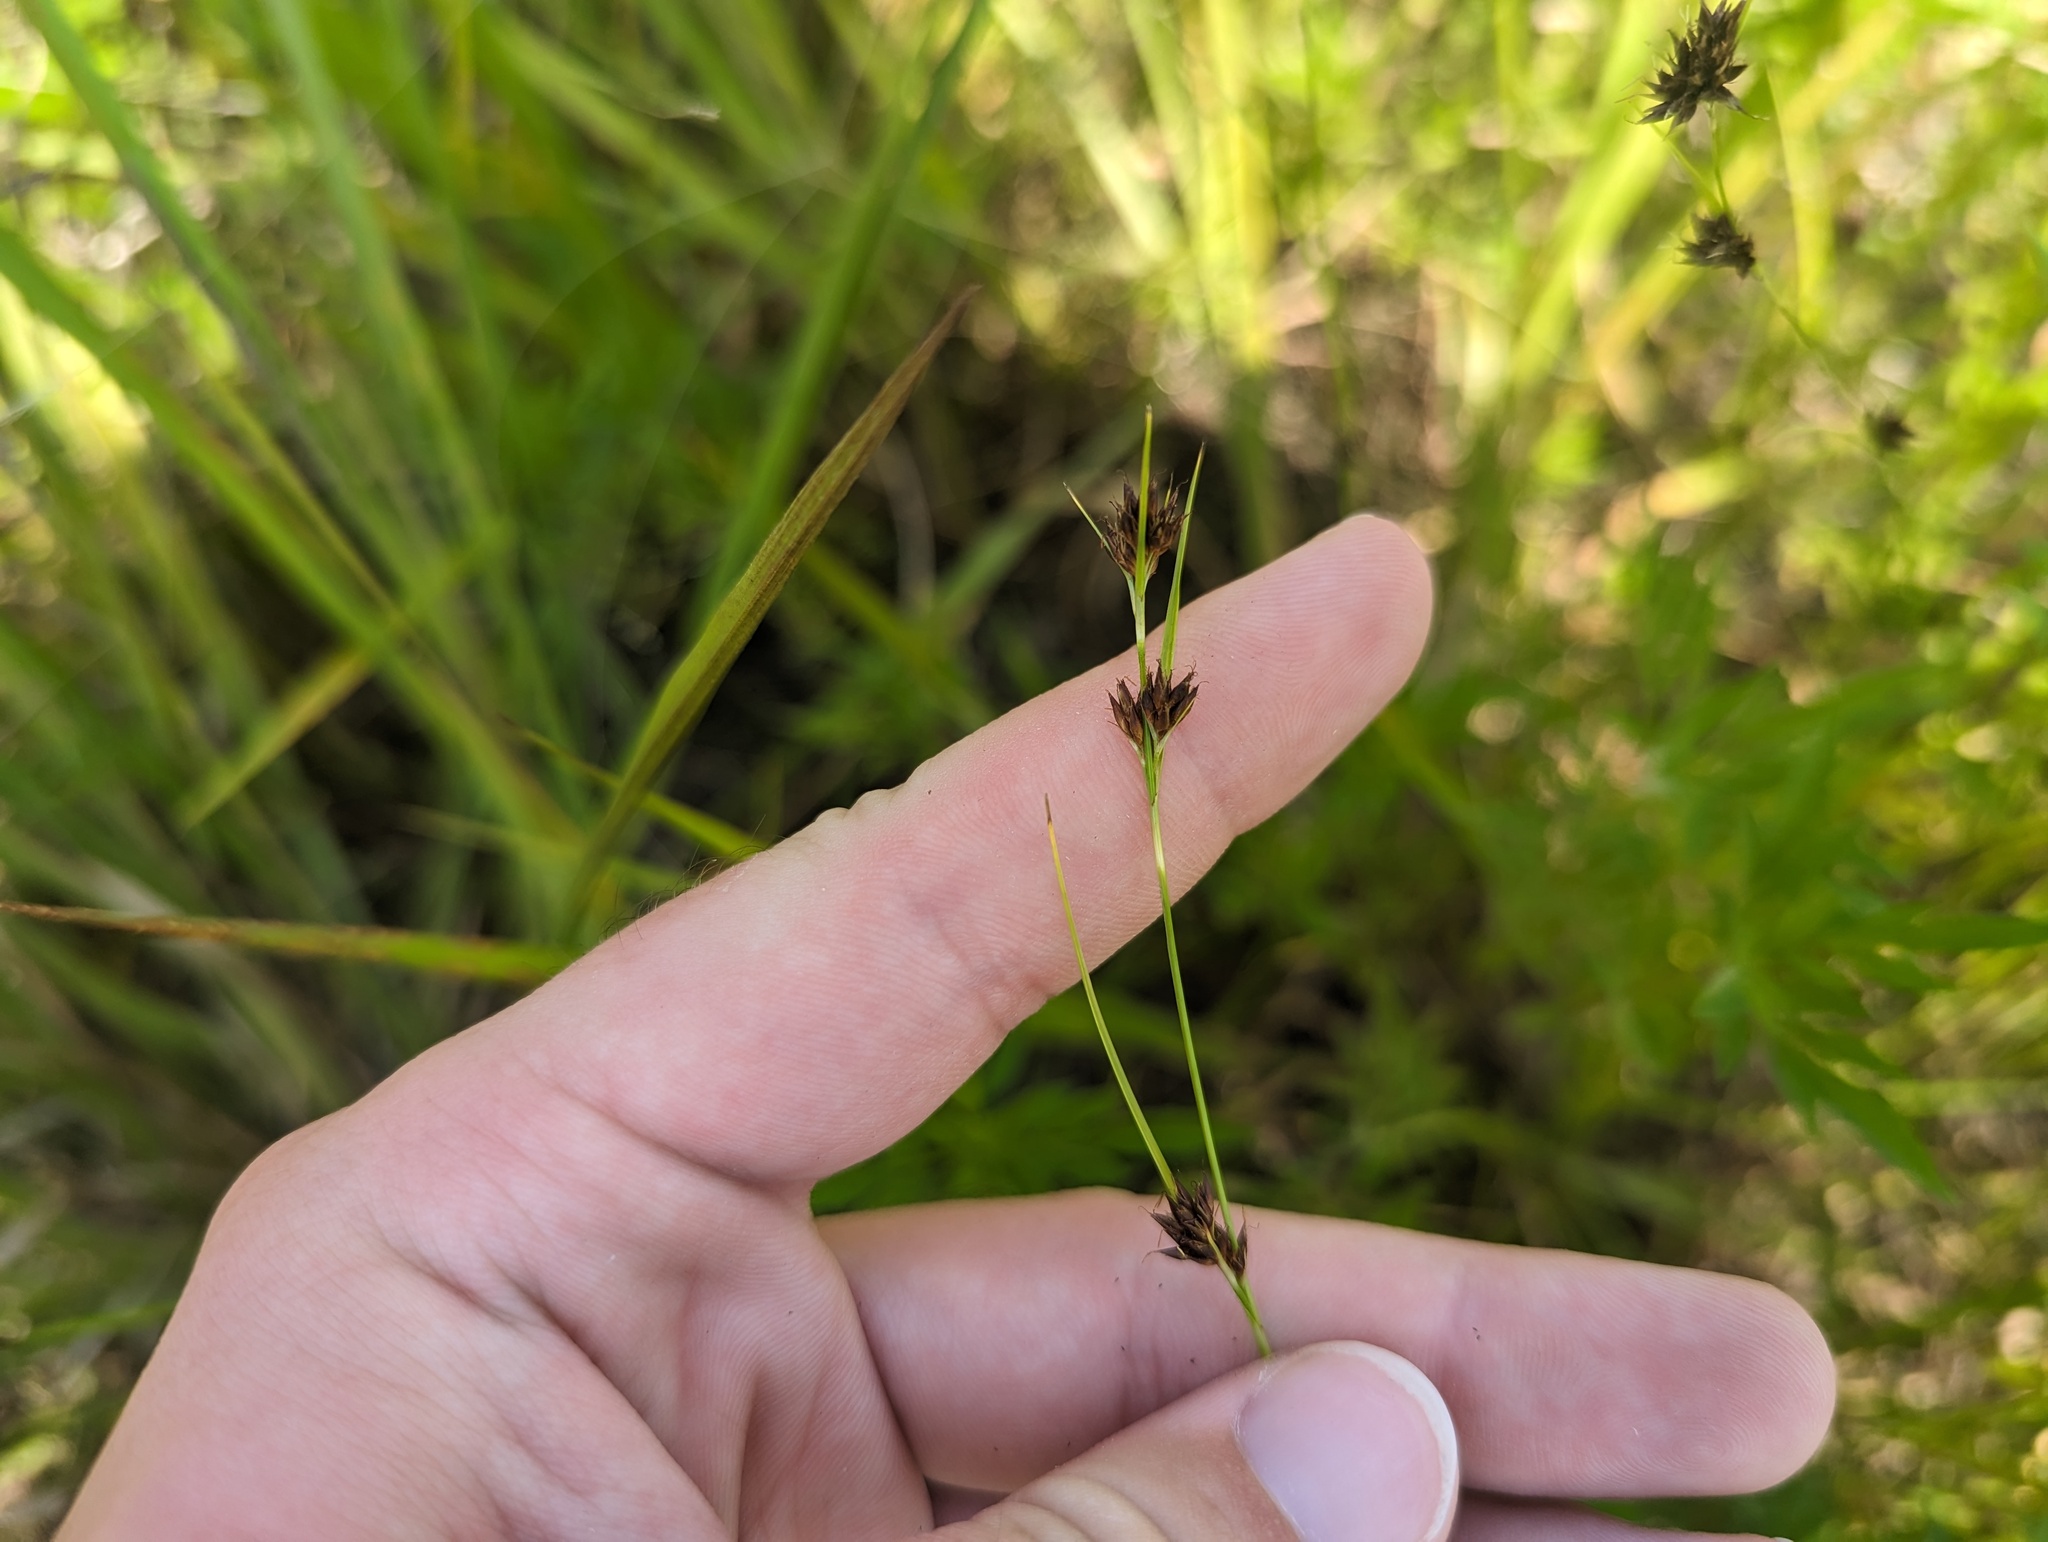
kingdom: Plantae
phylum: Tracheophyta
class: Liliopsida
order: Poales
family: Cyperaceae
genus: Rhynchospora
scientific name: Rhynchospora capitellata
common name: Brownish beaksedge
